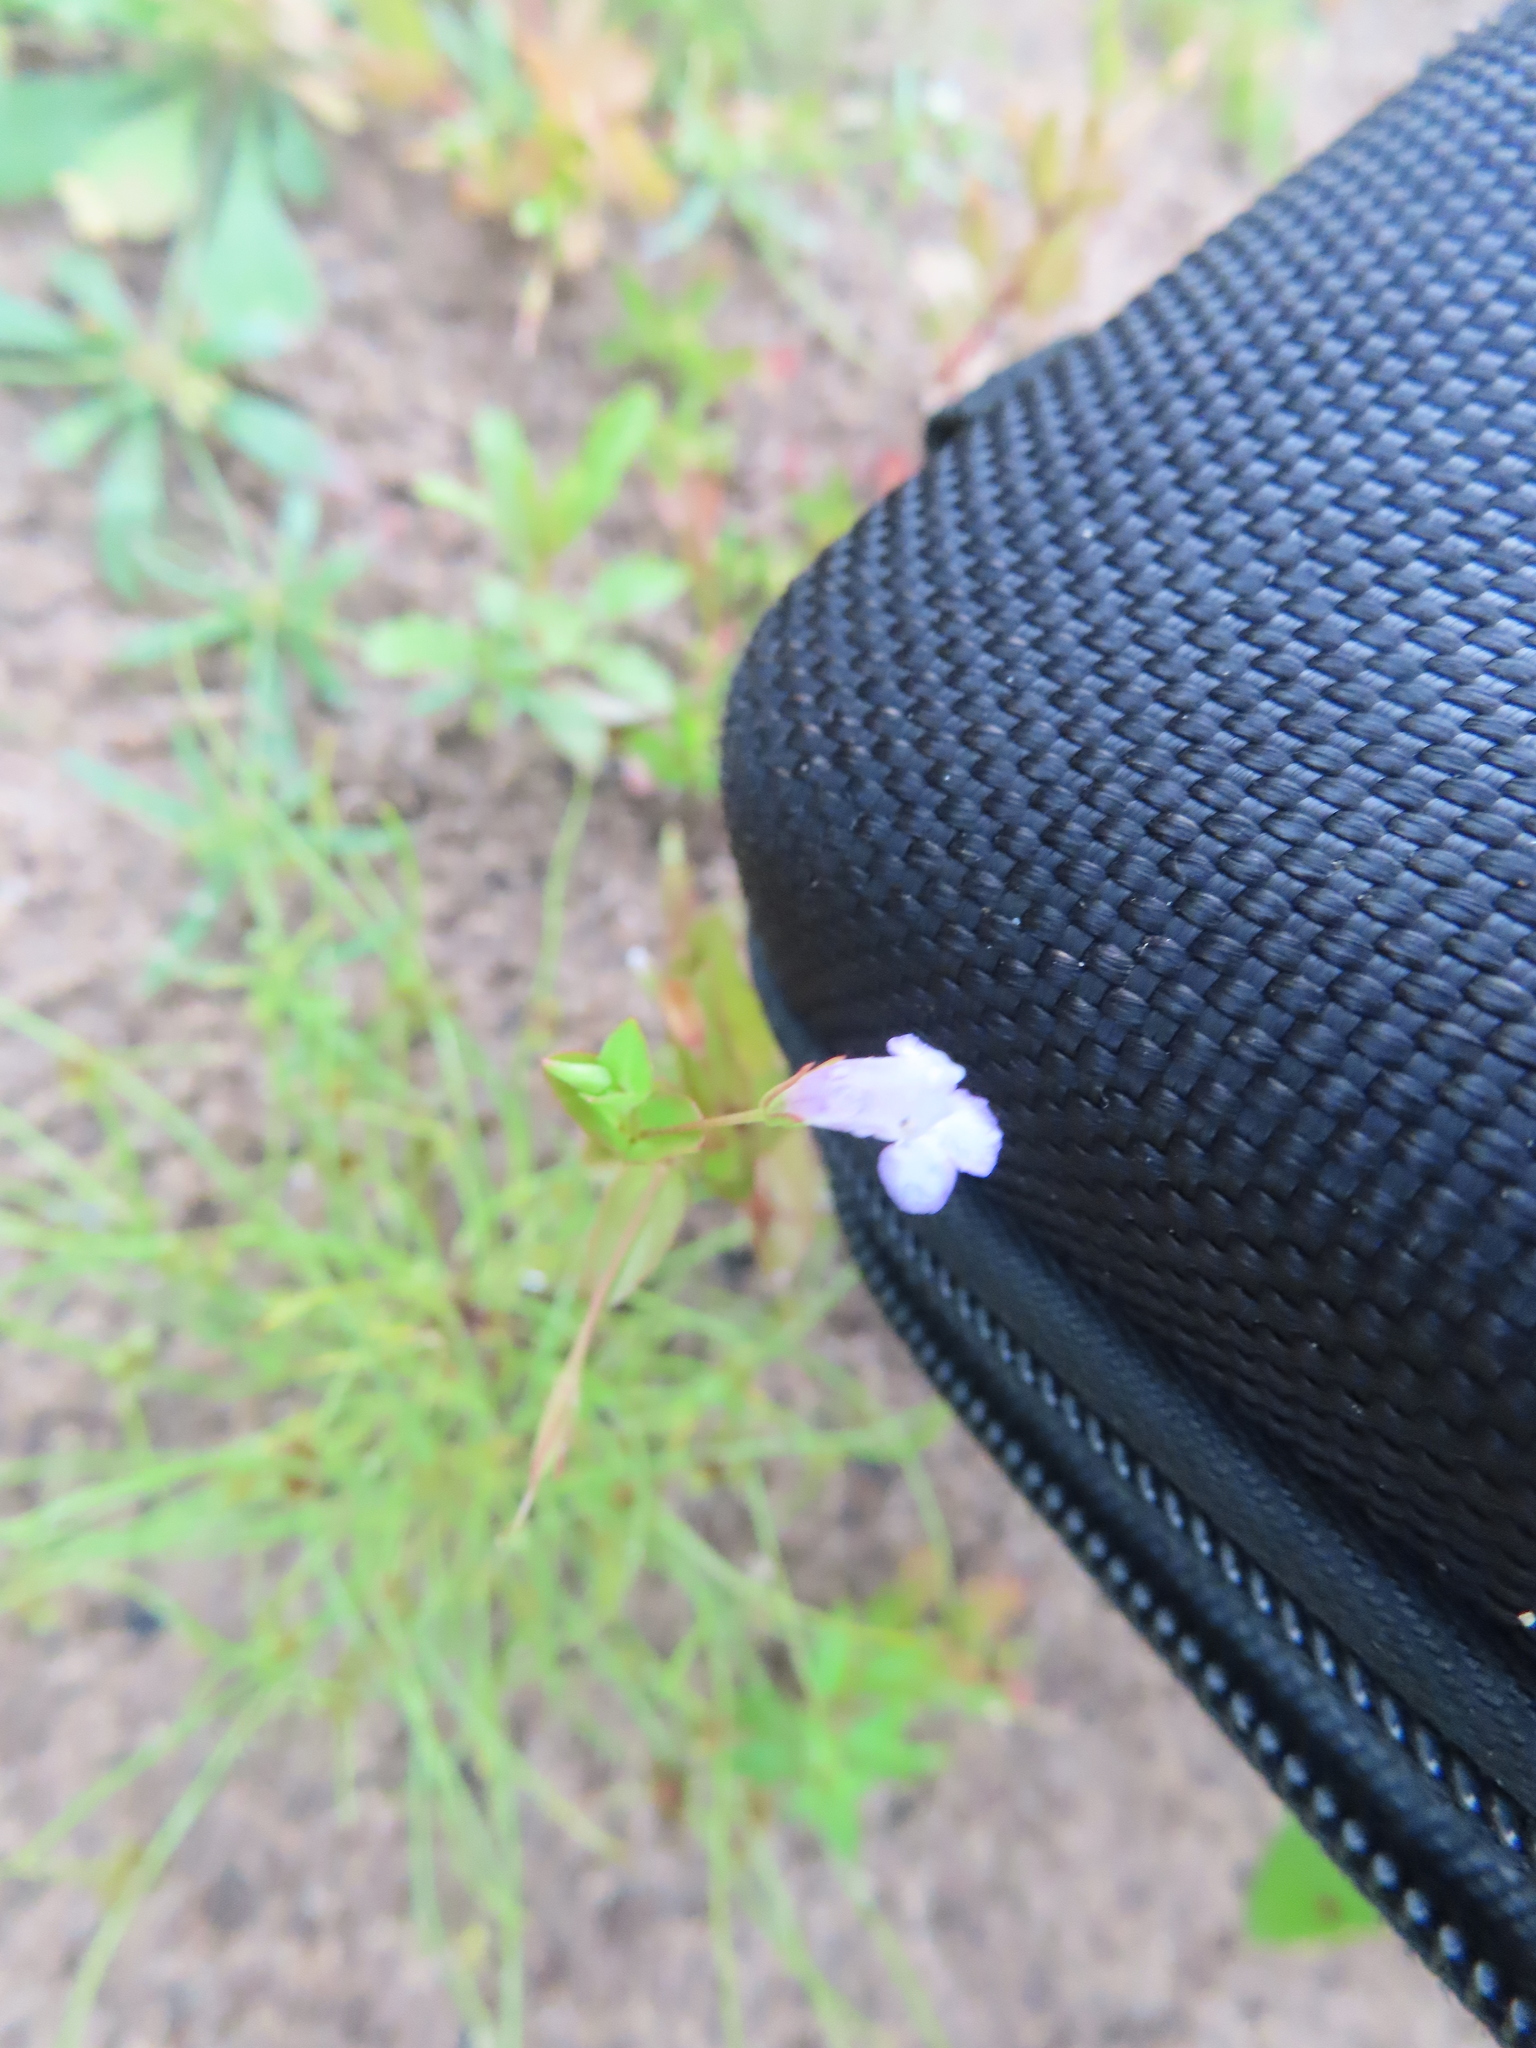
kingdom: Plantae
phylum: Tracheophyta
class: Magnoliopsida
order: Lamiales
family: Linderniaceae
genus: Lindernia
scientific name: Lindernia dubia
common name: Annual false pimpernel
